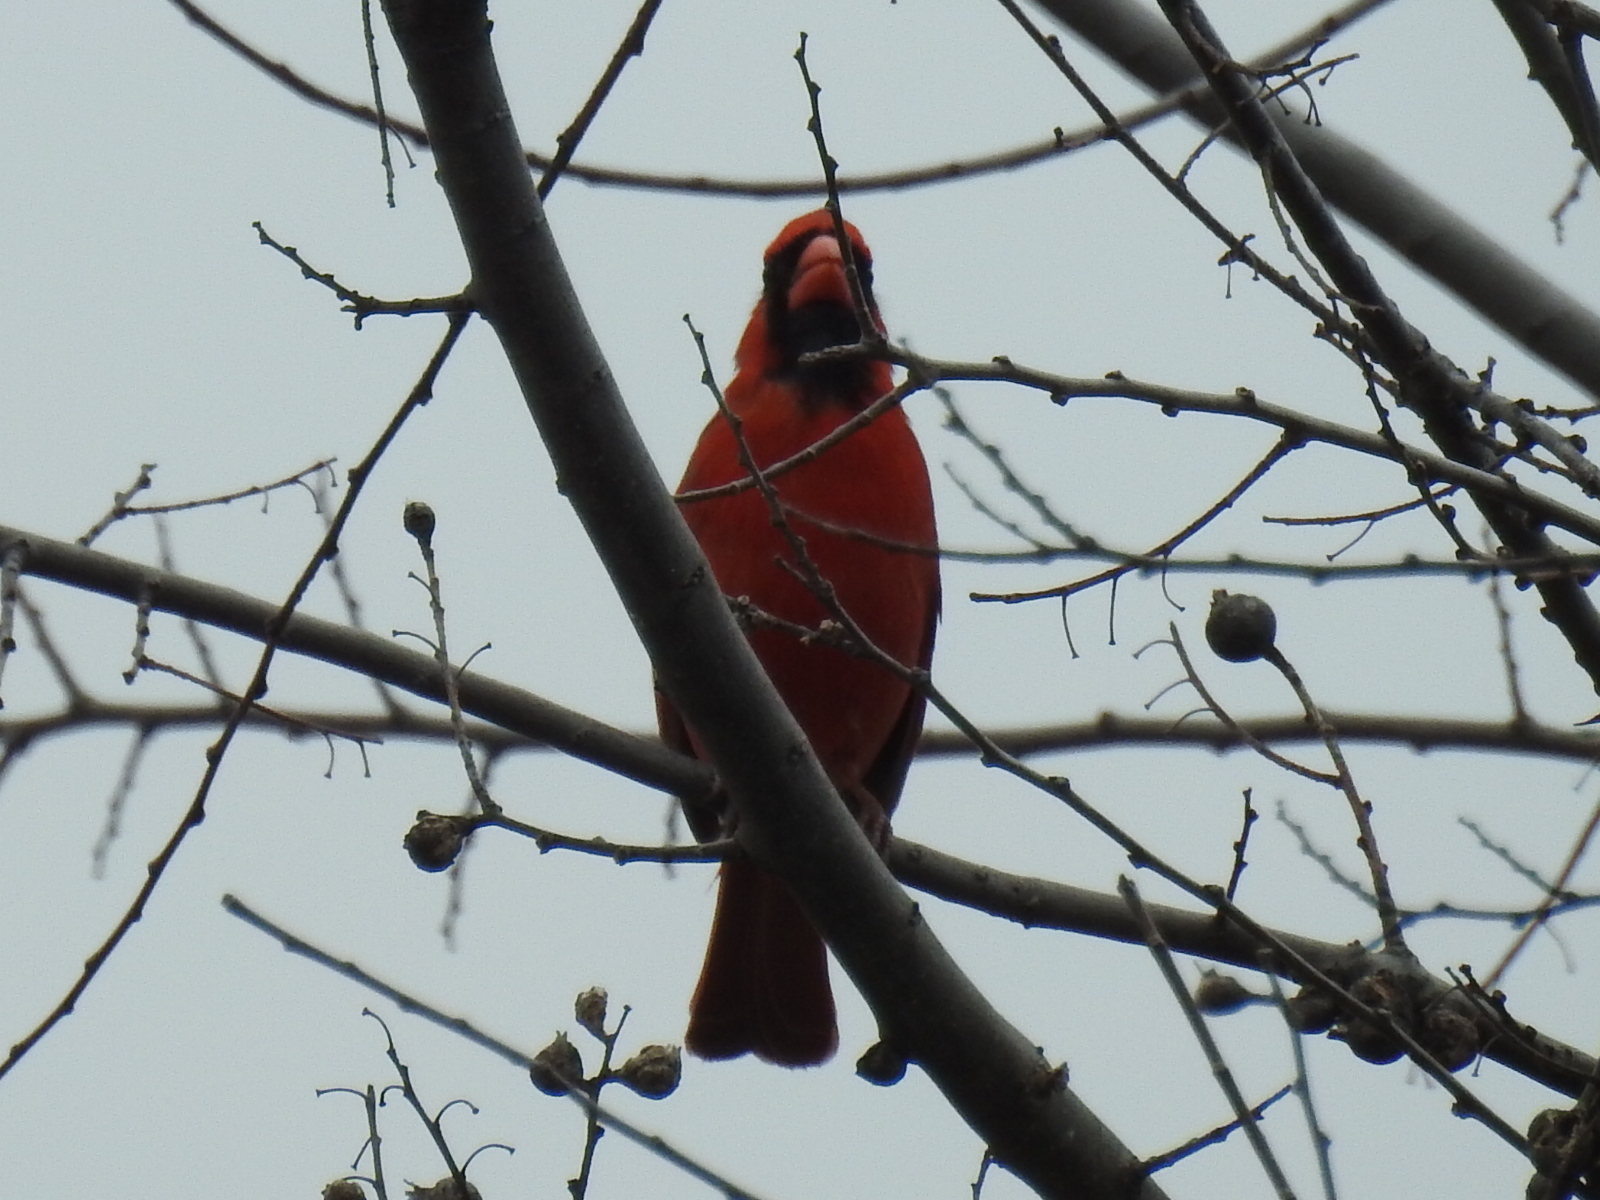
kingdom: Animalia
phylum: Chordata
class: Aves
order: Passeriformes
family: Cardinalidae
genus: Cardinalis
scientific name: Cardinalis cardinalis
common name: Northern cardinal
